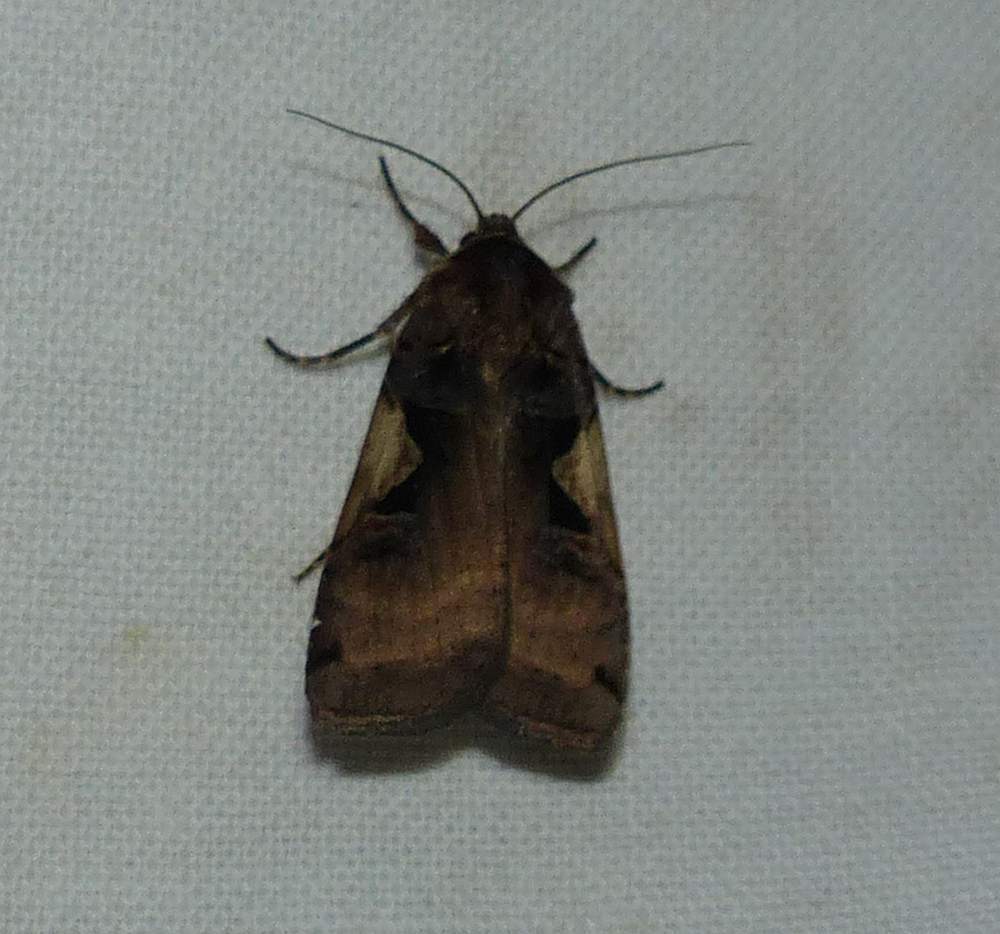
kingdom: Animalia
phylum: Arthropoda
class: Insecta
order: Lepidoptera
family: Noctuidae
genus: Xestia
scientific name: Xestia
